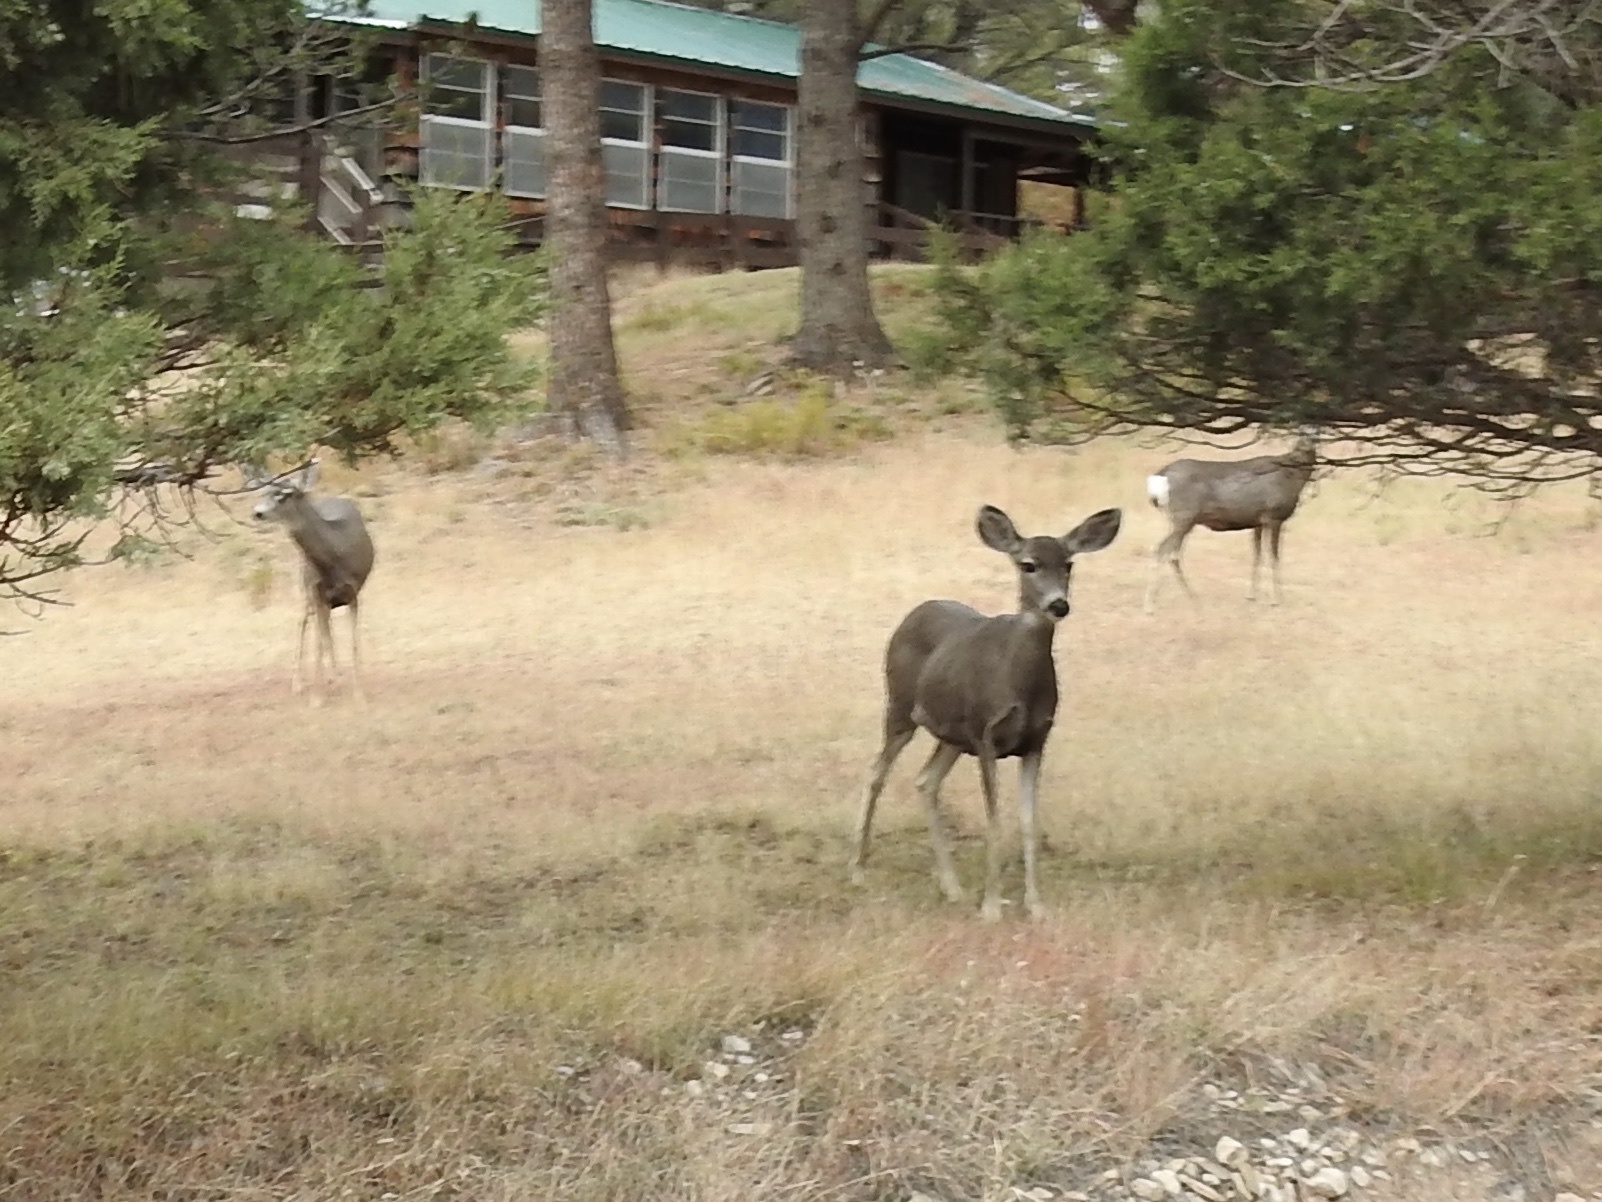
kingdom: Animalia
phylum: Chordata
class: Mammalia
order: Artiodactyla
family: Cervidae
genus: Odocoileus
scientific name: Odocoileus hemionus
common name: Mule deer
